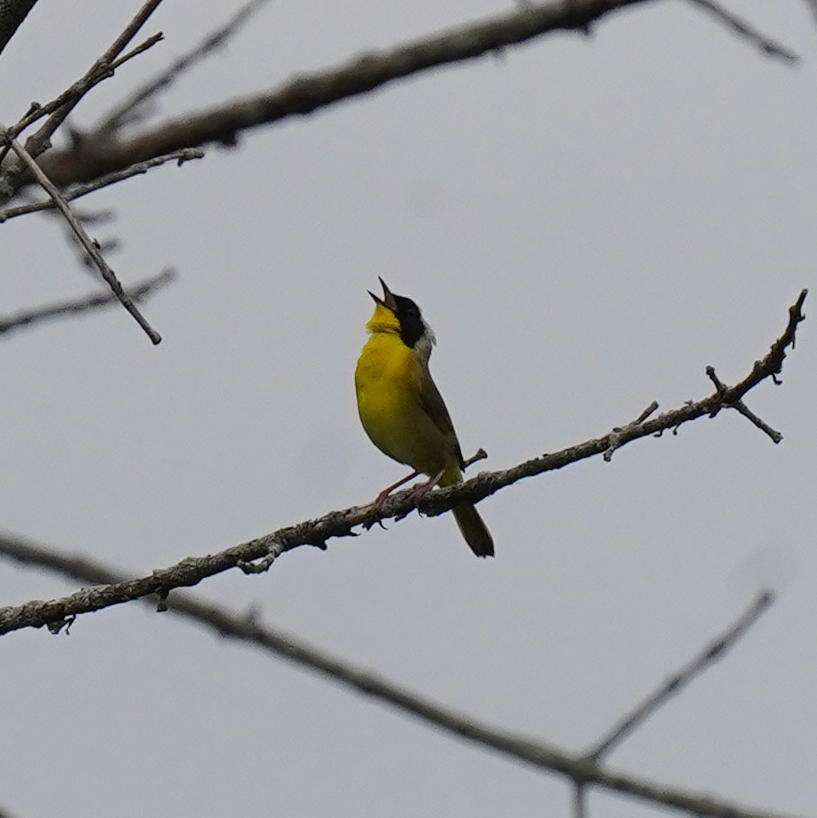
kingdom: Animalia
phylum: Chordata
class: Aves
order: Passeriformes
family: Parulidae
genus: Geothlypis
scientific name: Geothlypis trichas
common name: Common yellowthroat
